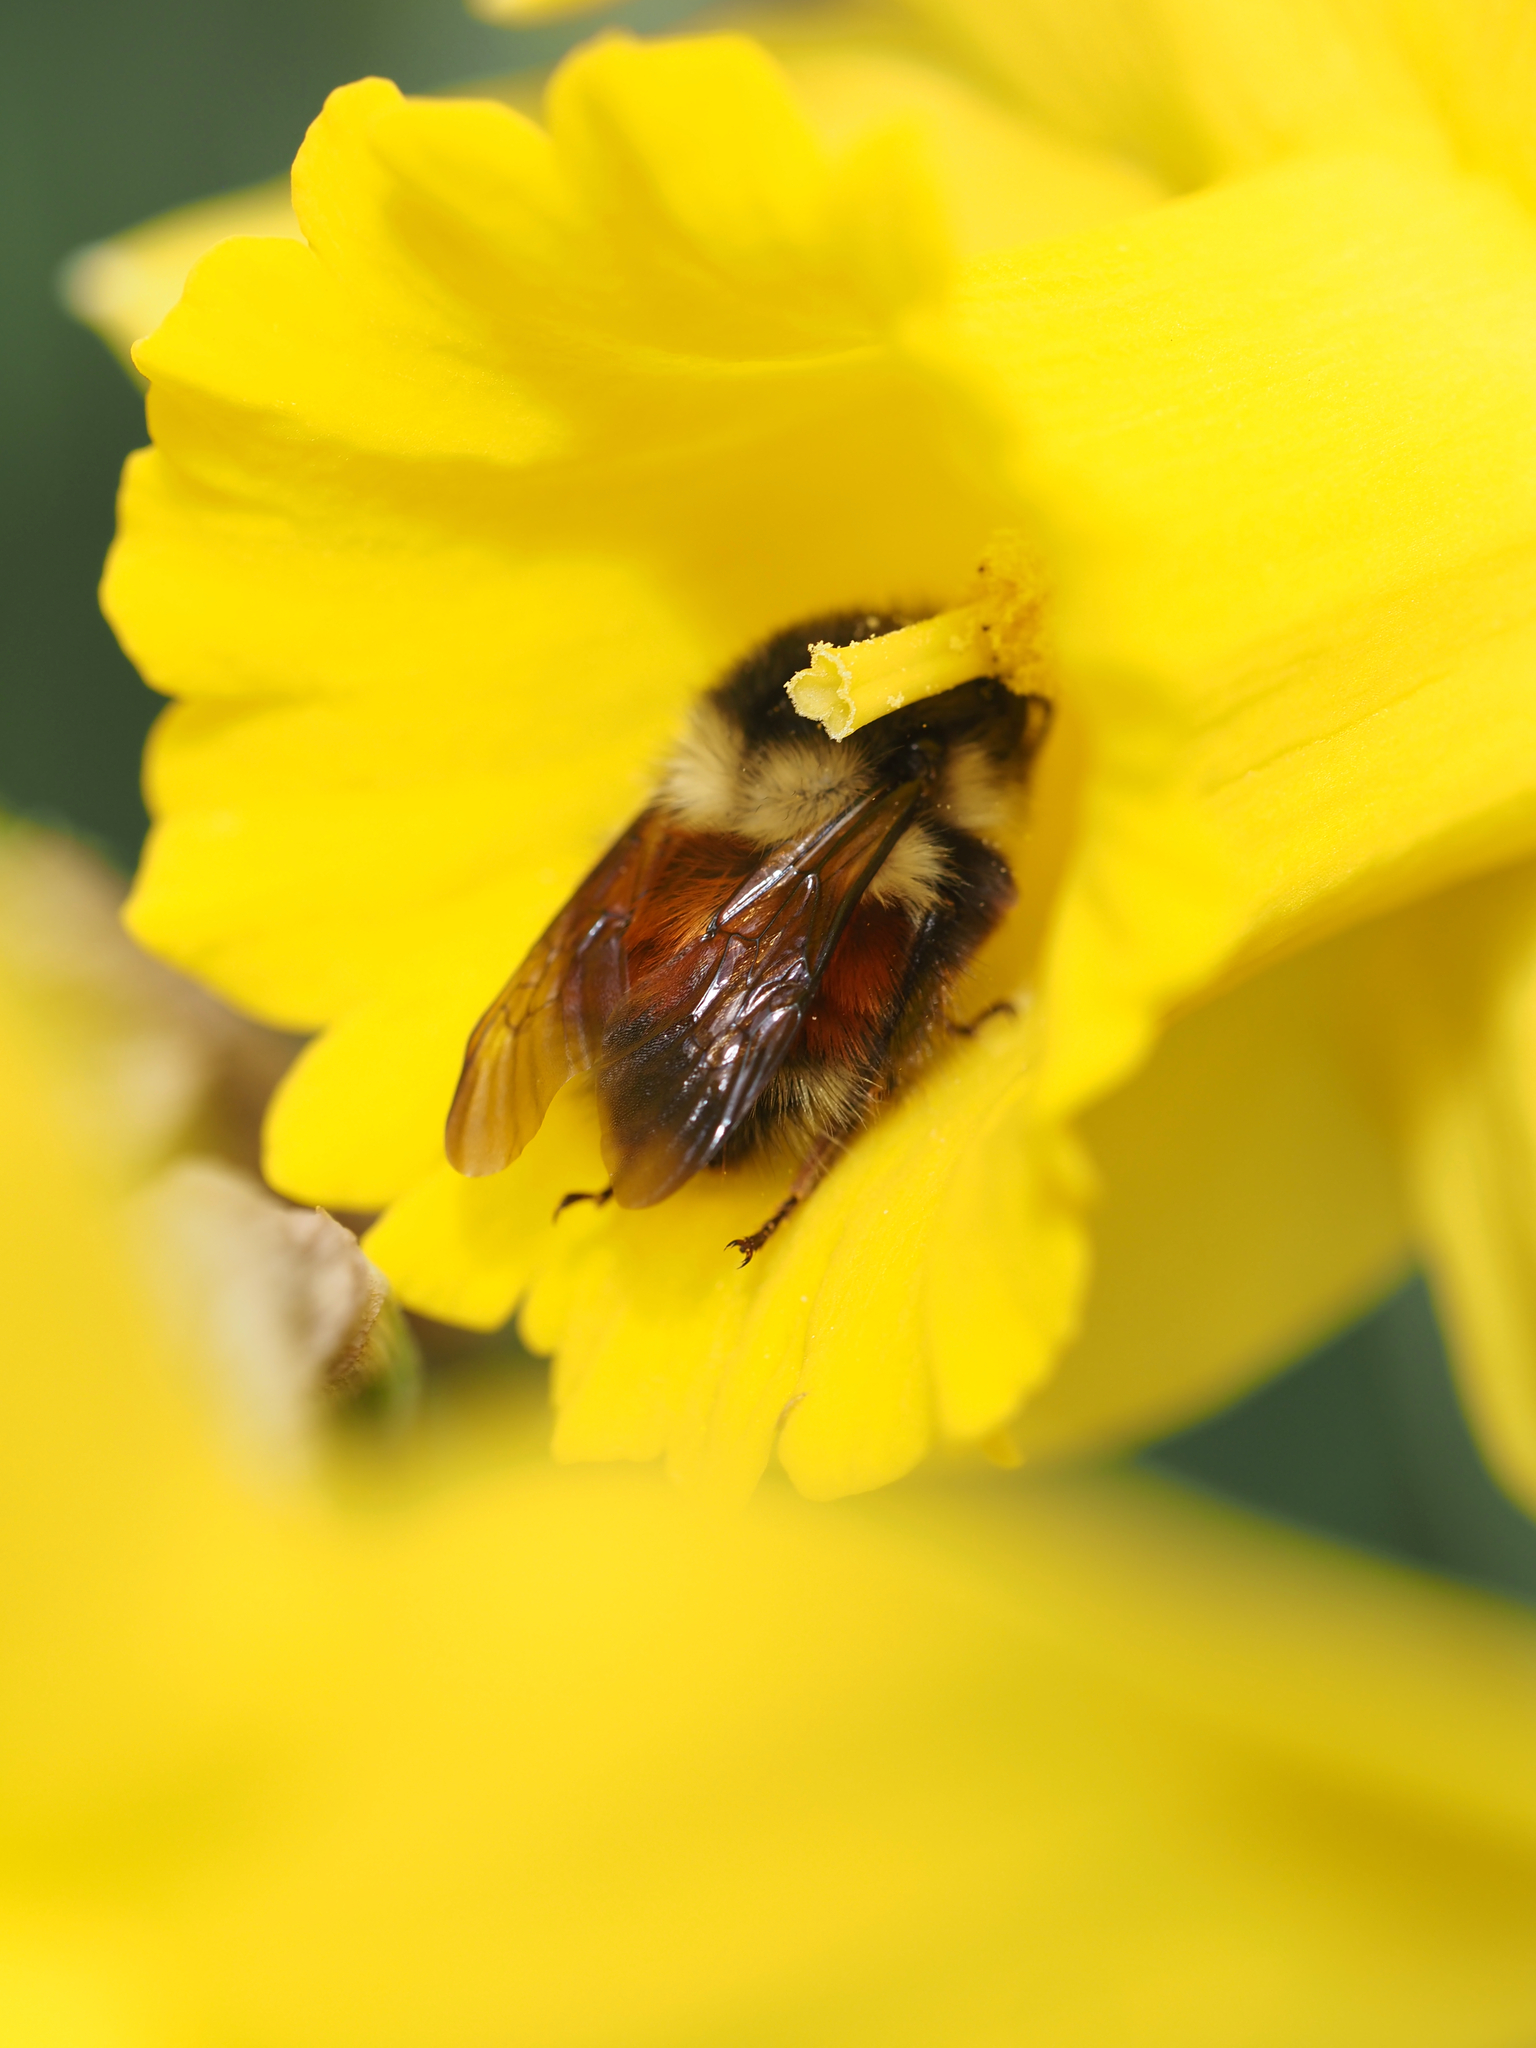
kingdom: Animalia
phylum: Arthropoda
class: Insecta
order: Hymenoptera
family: Apidae
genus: Bombus
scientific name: Bombus melanopygus
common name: Black tail bumble bee
